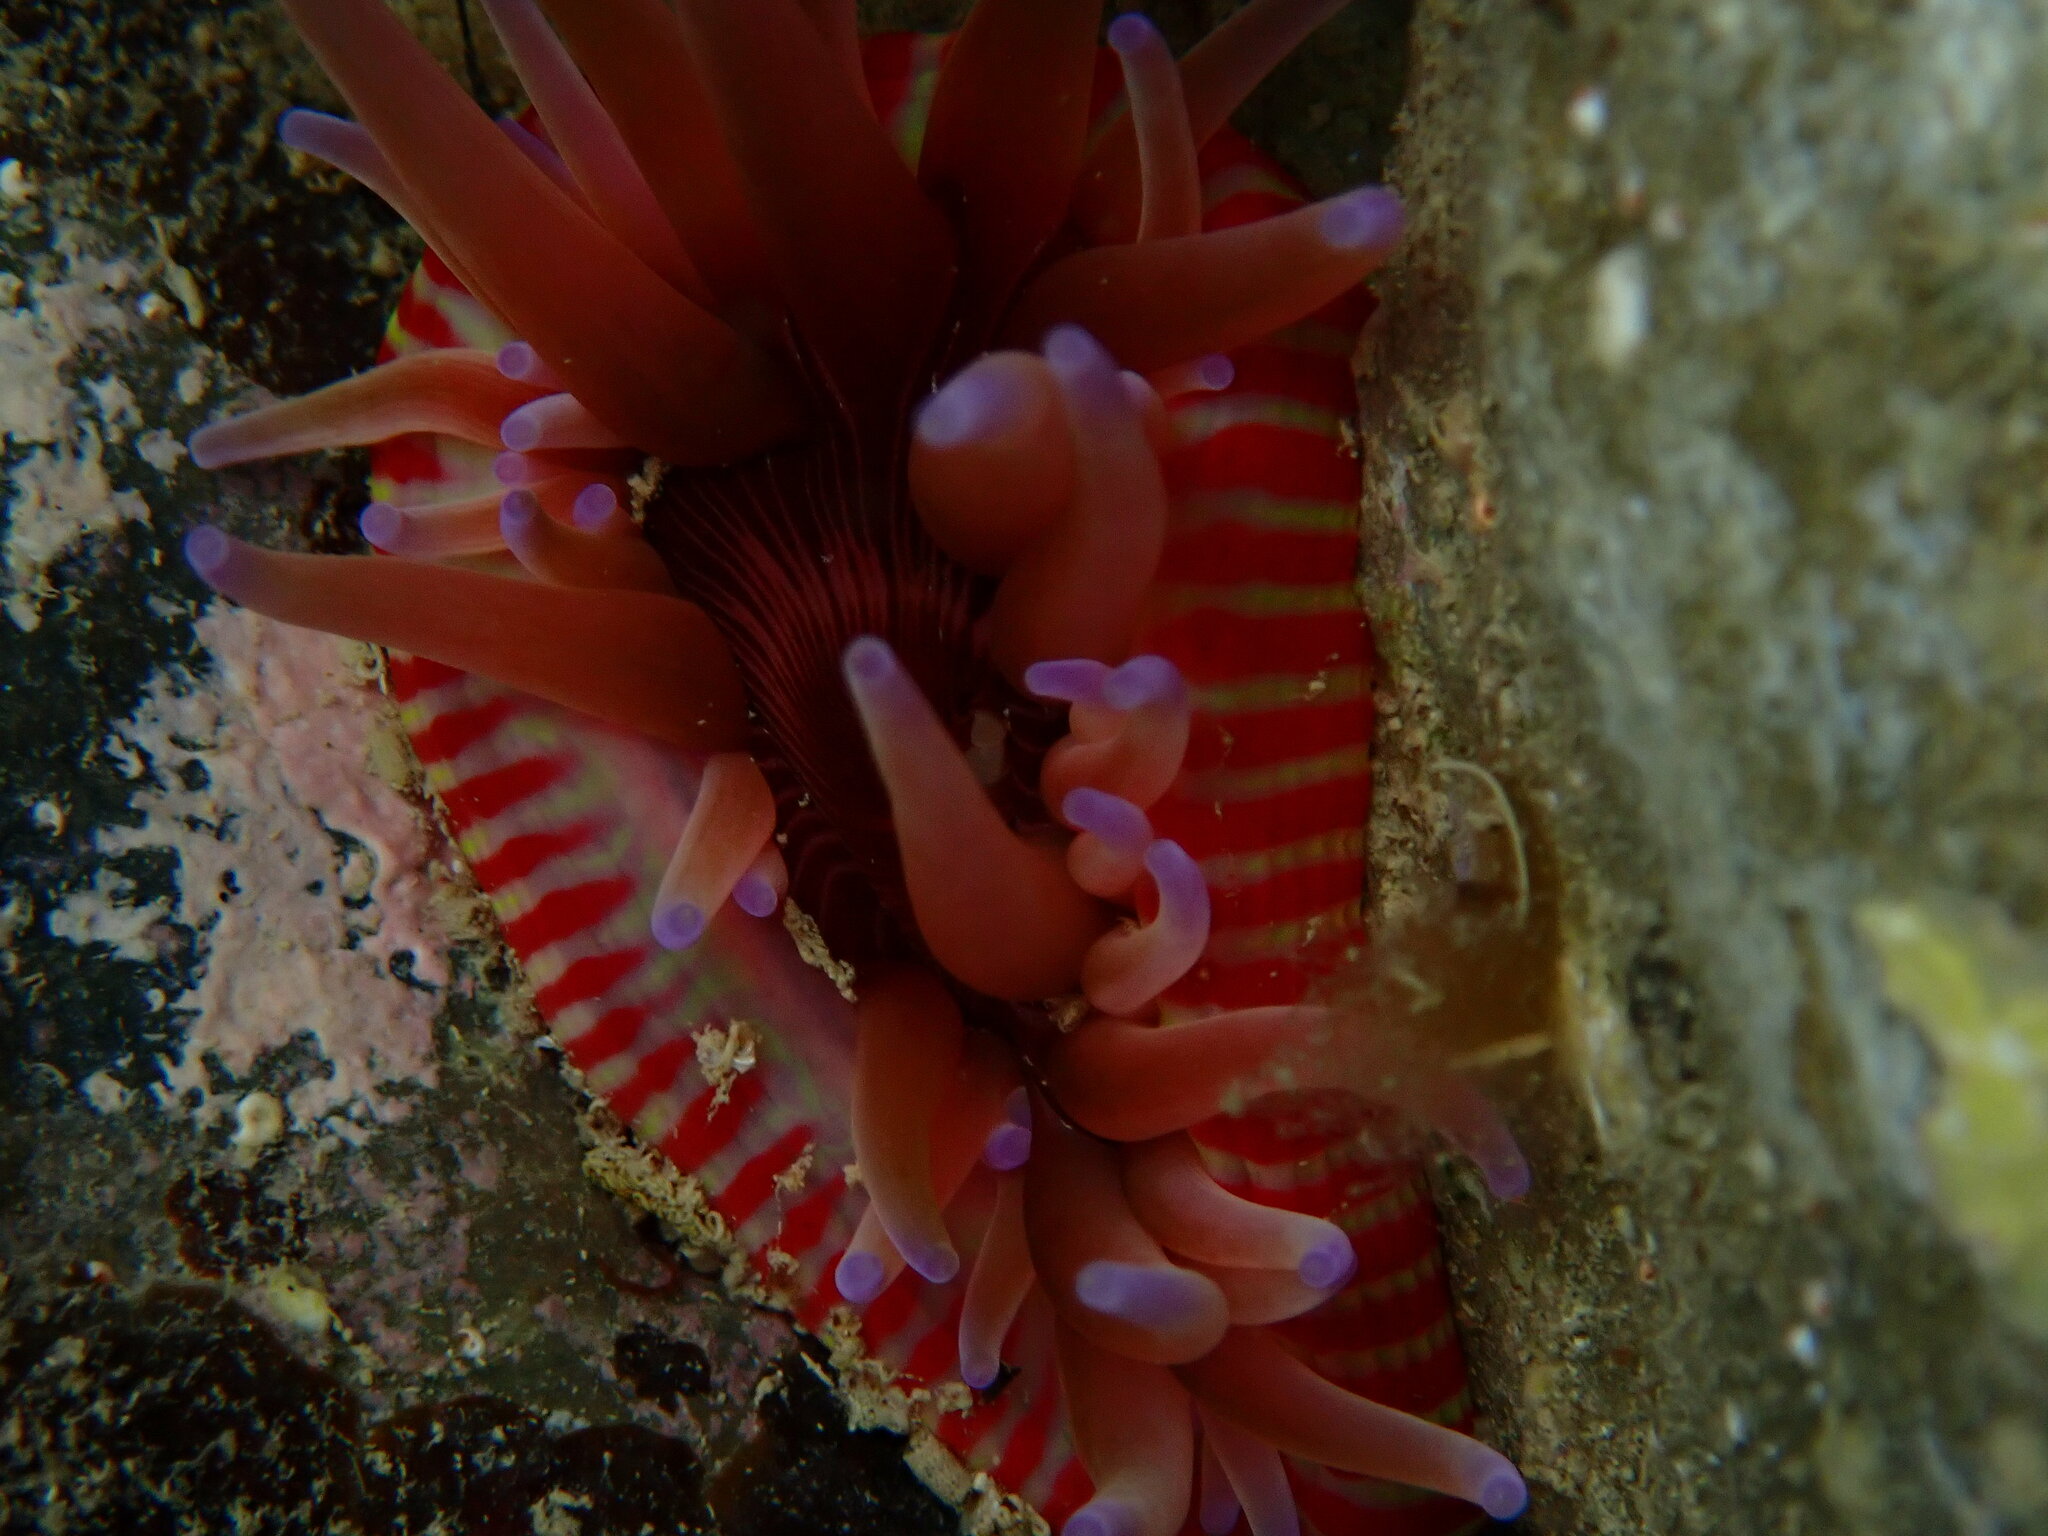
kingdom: Animalia
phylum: Cnidaria
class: Anthozoa
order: Actiniaria
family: Actiniidae
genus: Epiactis
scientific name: Epiactis thompsoni
